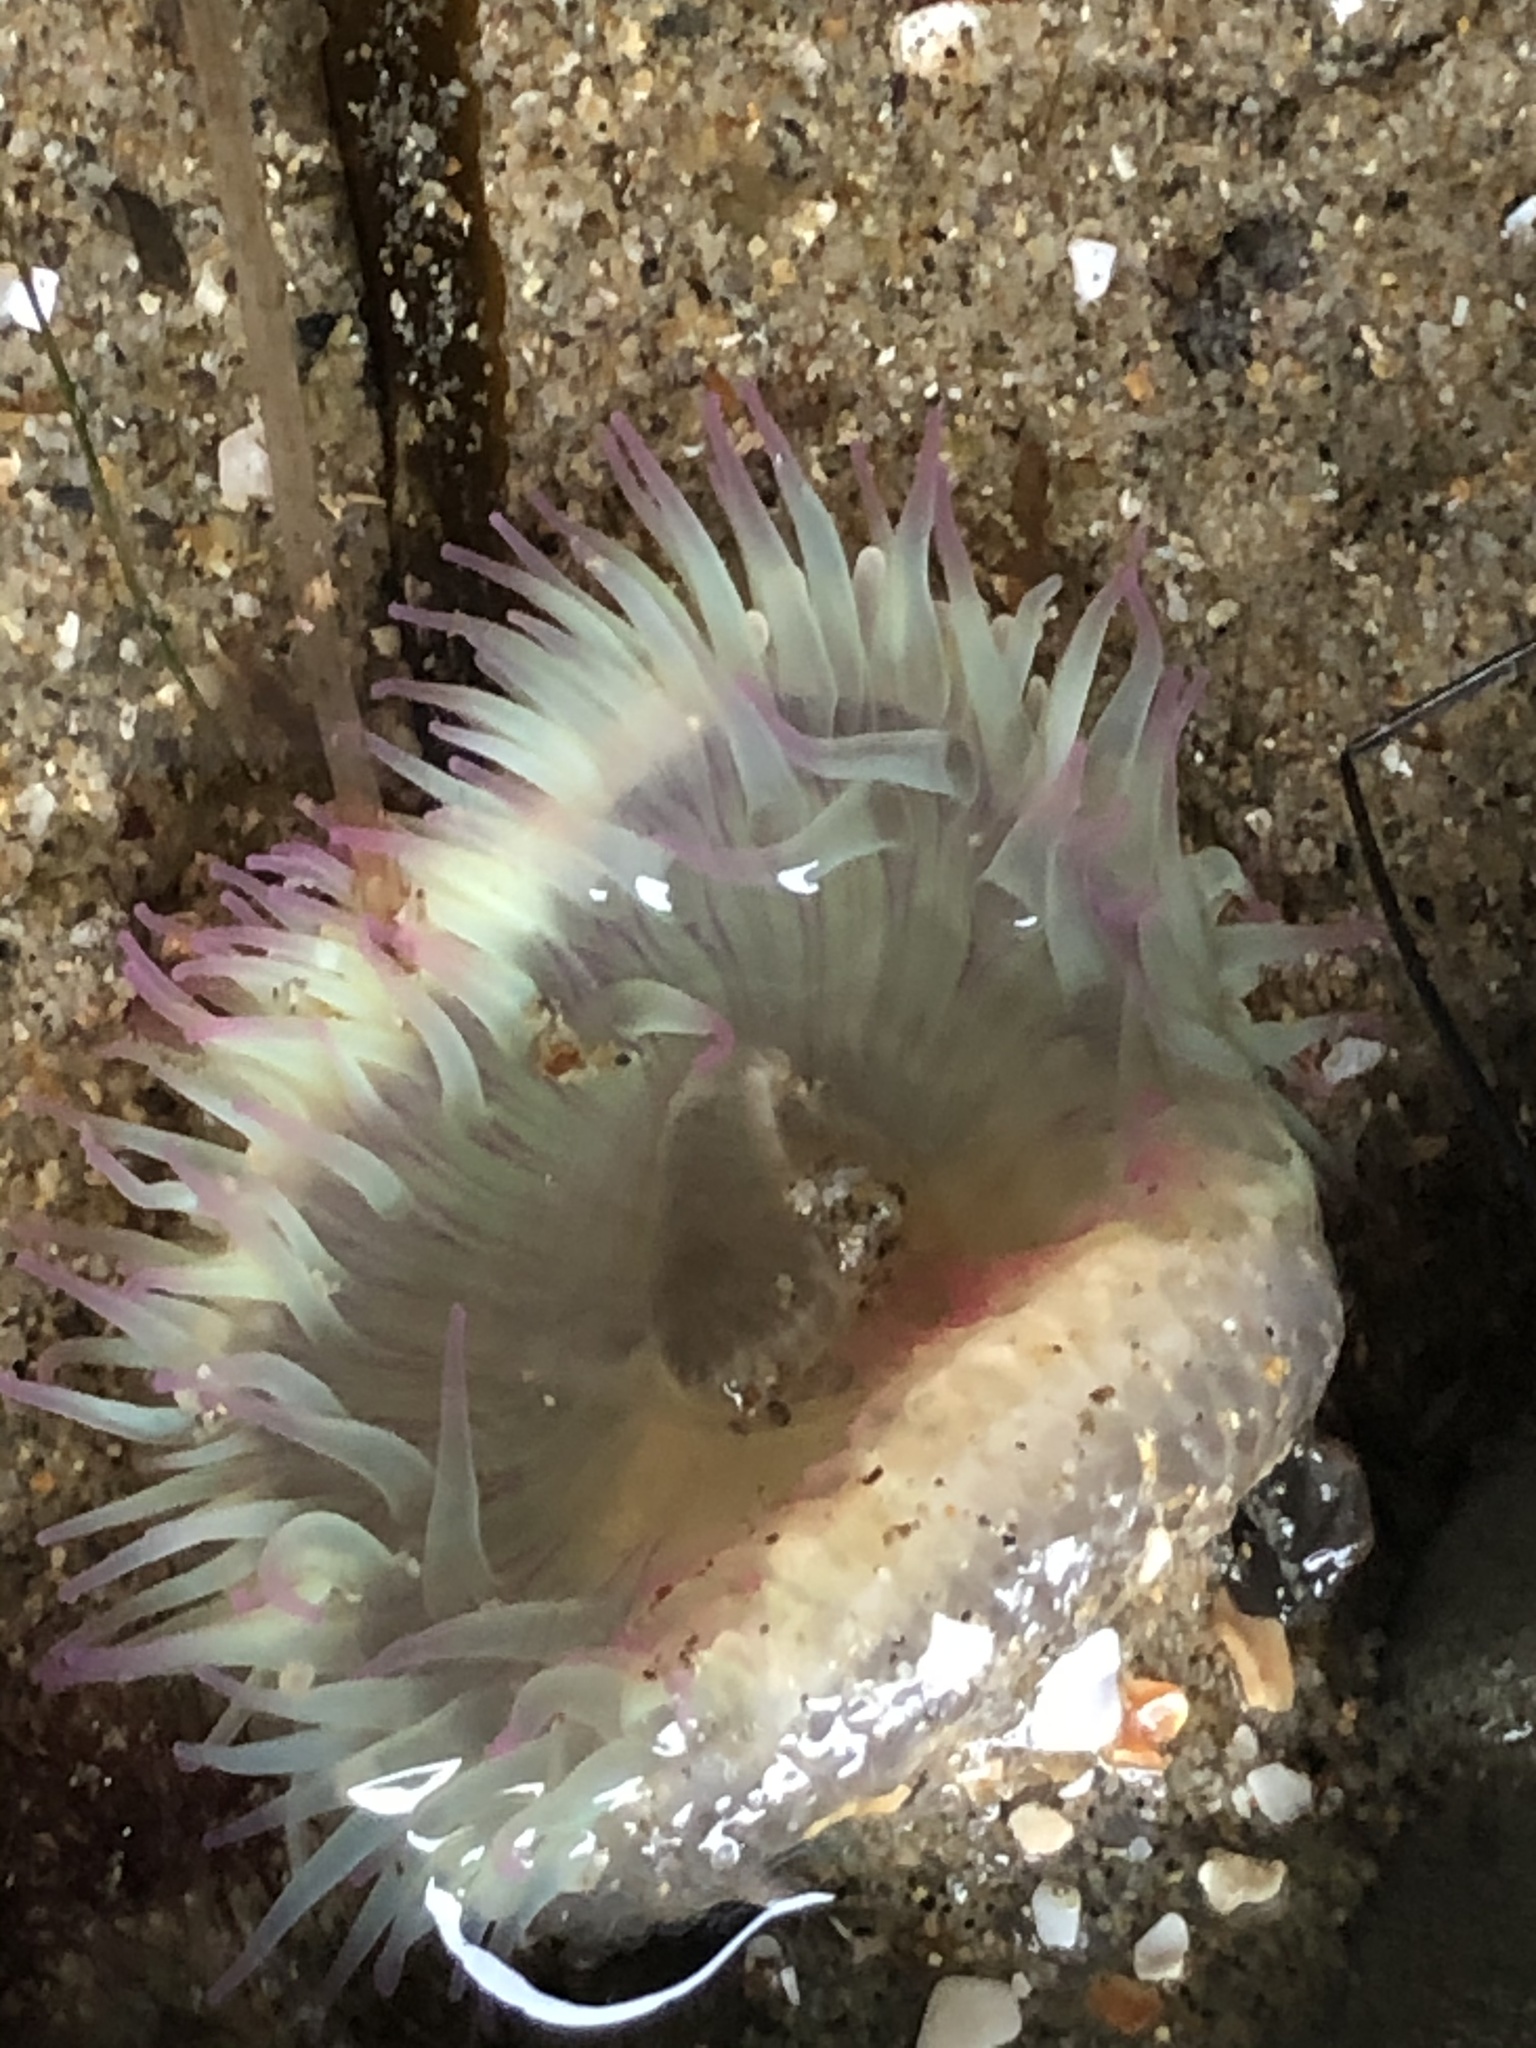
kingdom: Animalia
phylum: Cnidaria
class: Anthozoa
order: Actiniaria
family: Actiniidae
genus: Anthopleura
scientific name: Anthopleura elegantissima
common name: Clonal anemone
